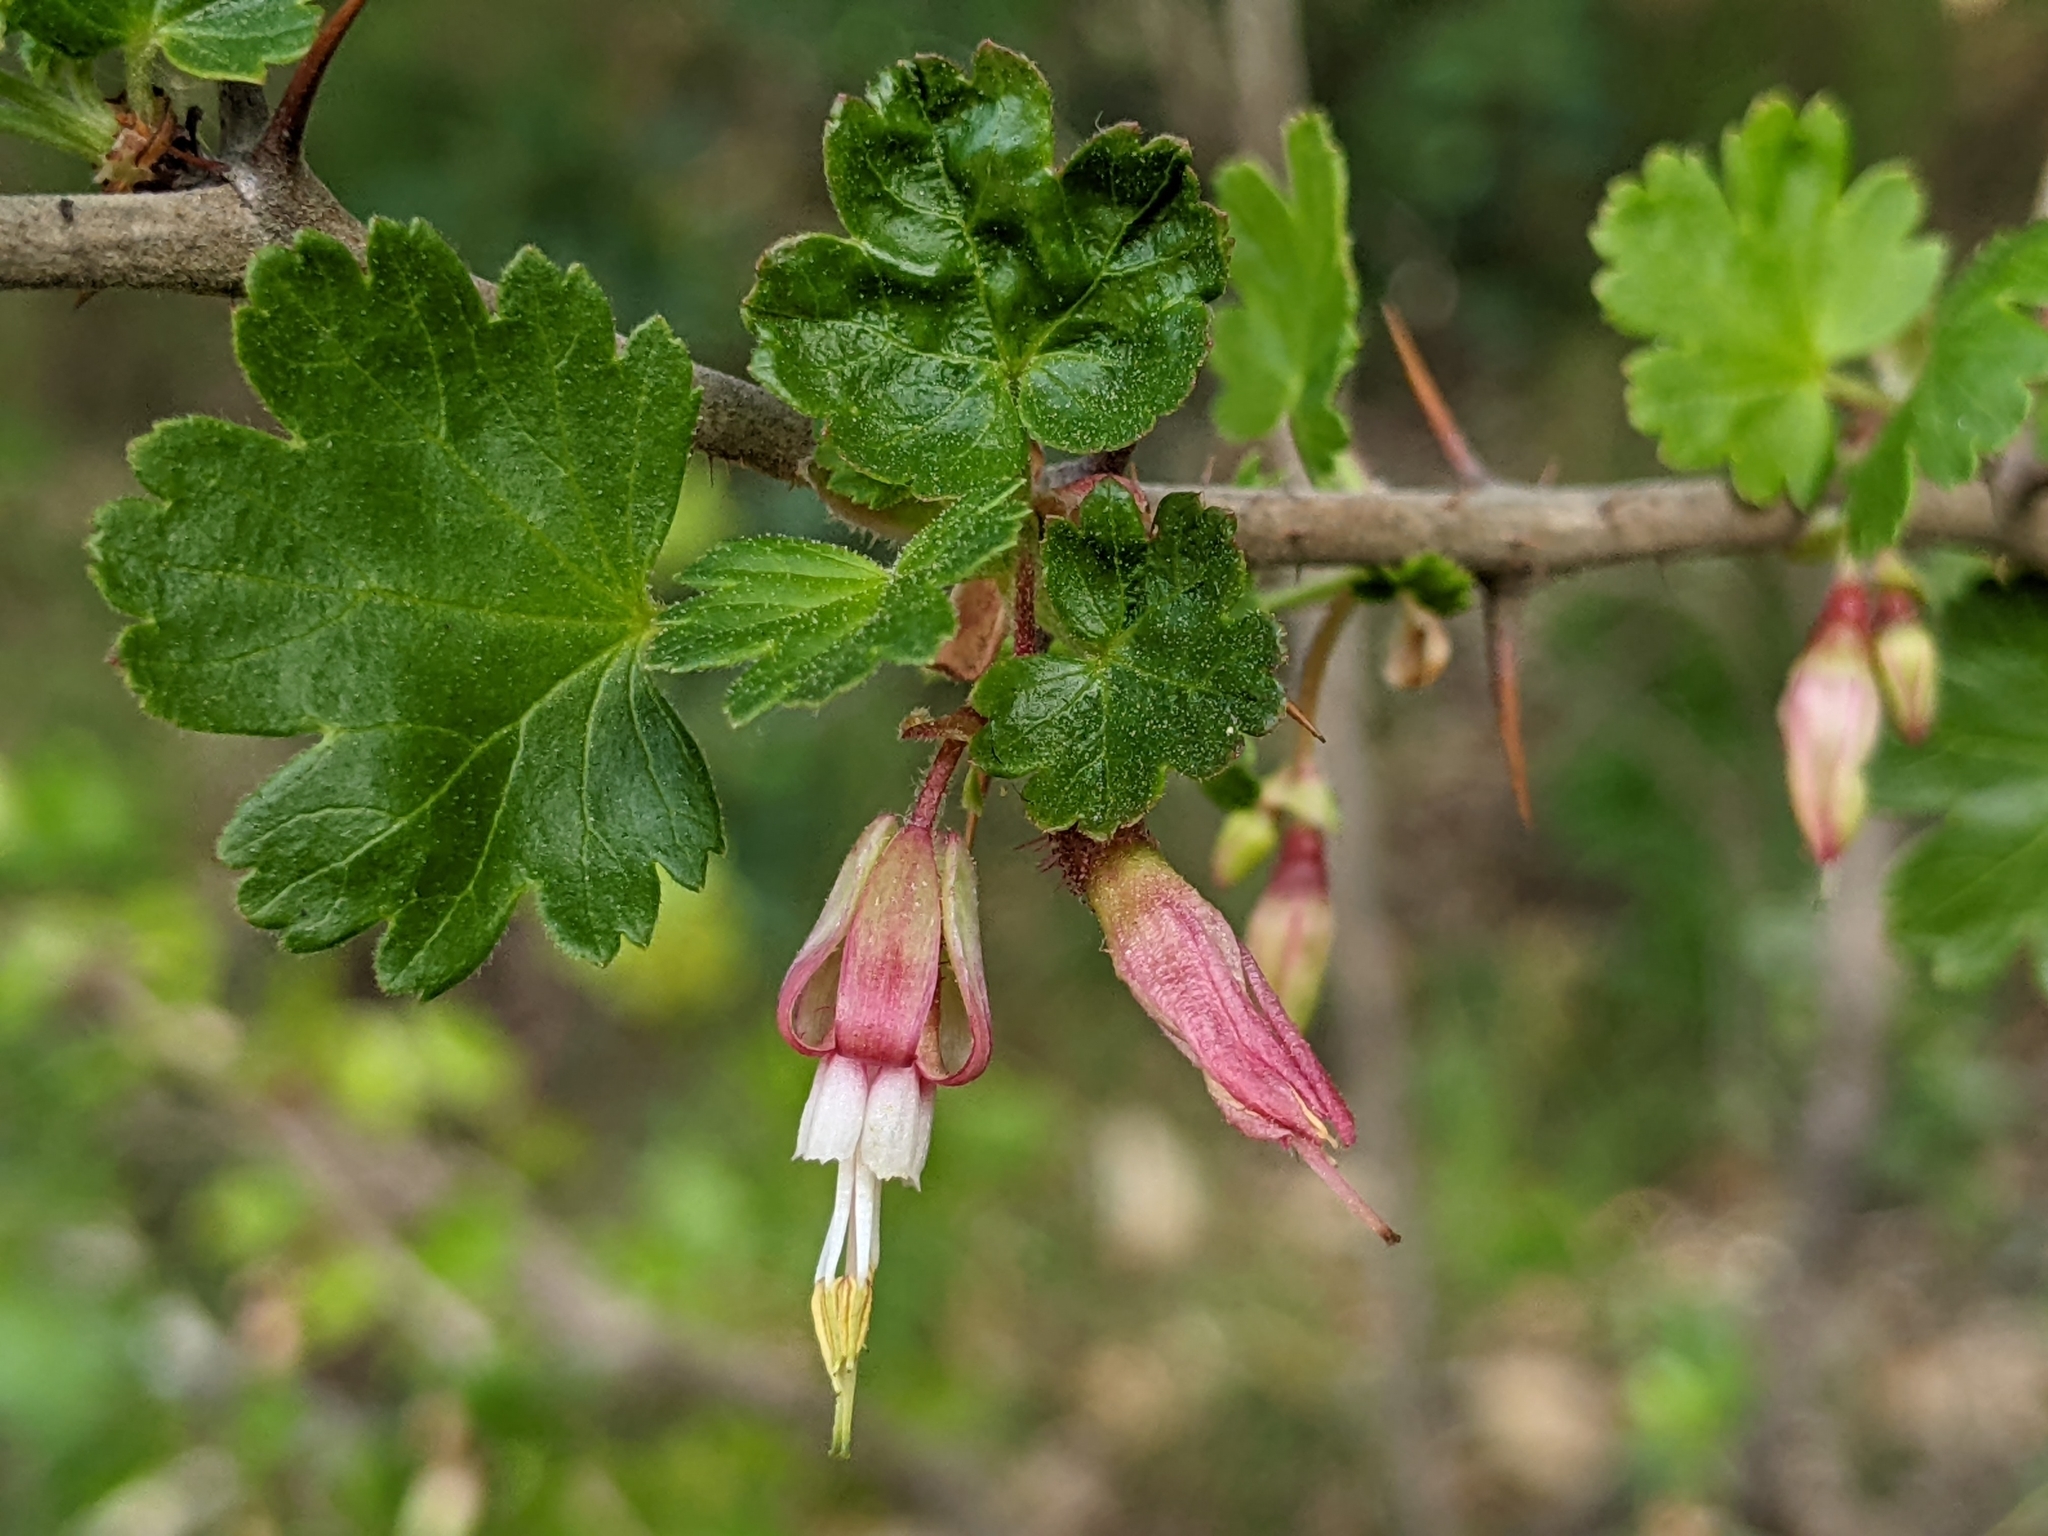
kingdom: Plantae
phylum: Tracheophyta
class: Magnoliopsida
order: Saxifragales
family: Grossulariaceae
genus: Ribes
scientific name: Ribes californicum
